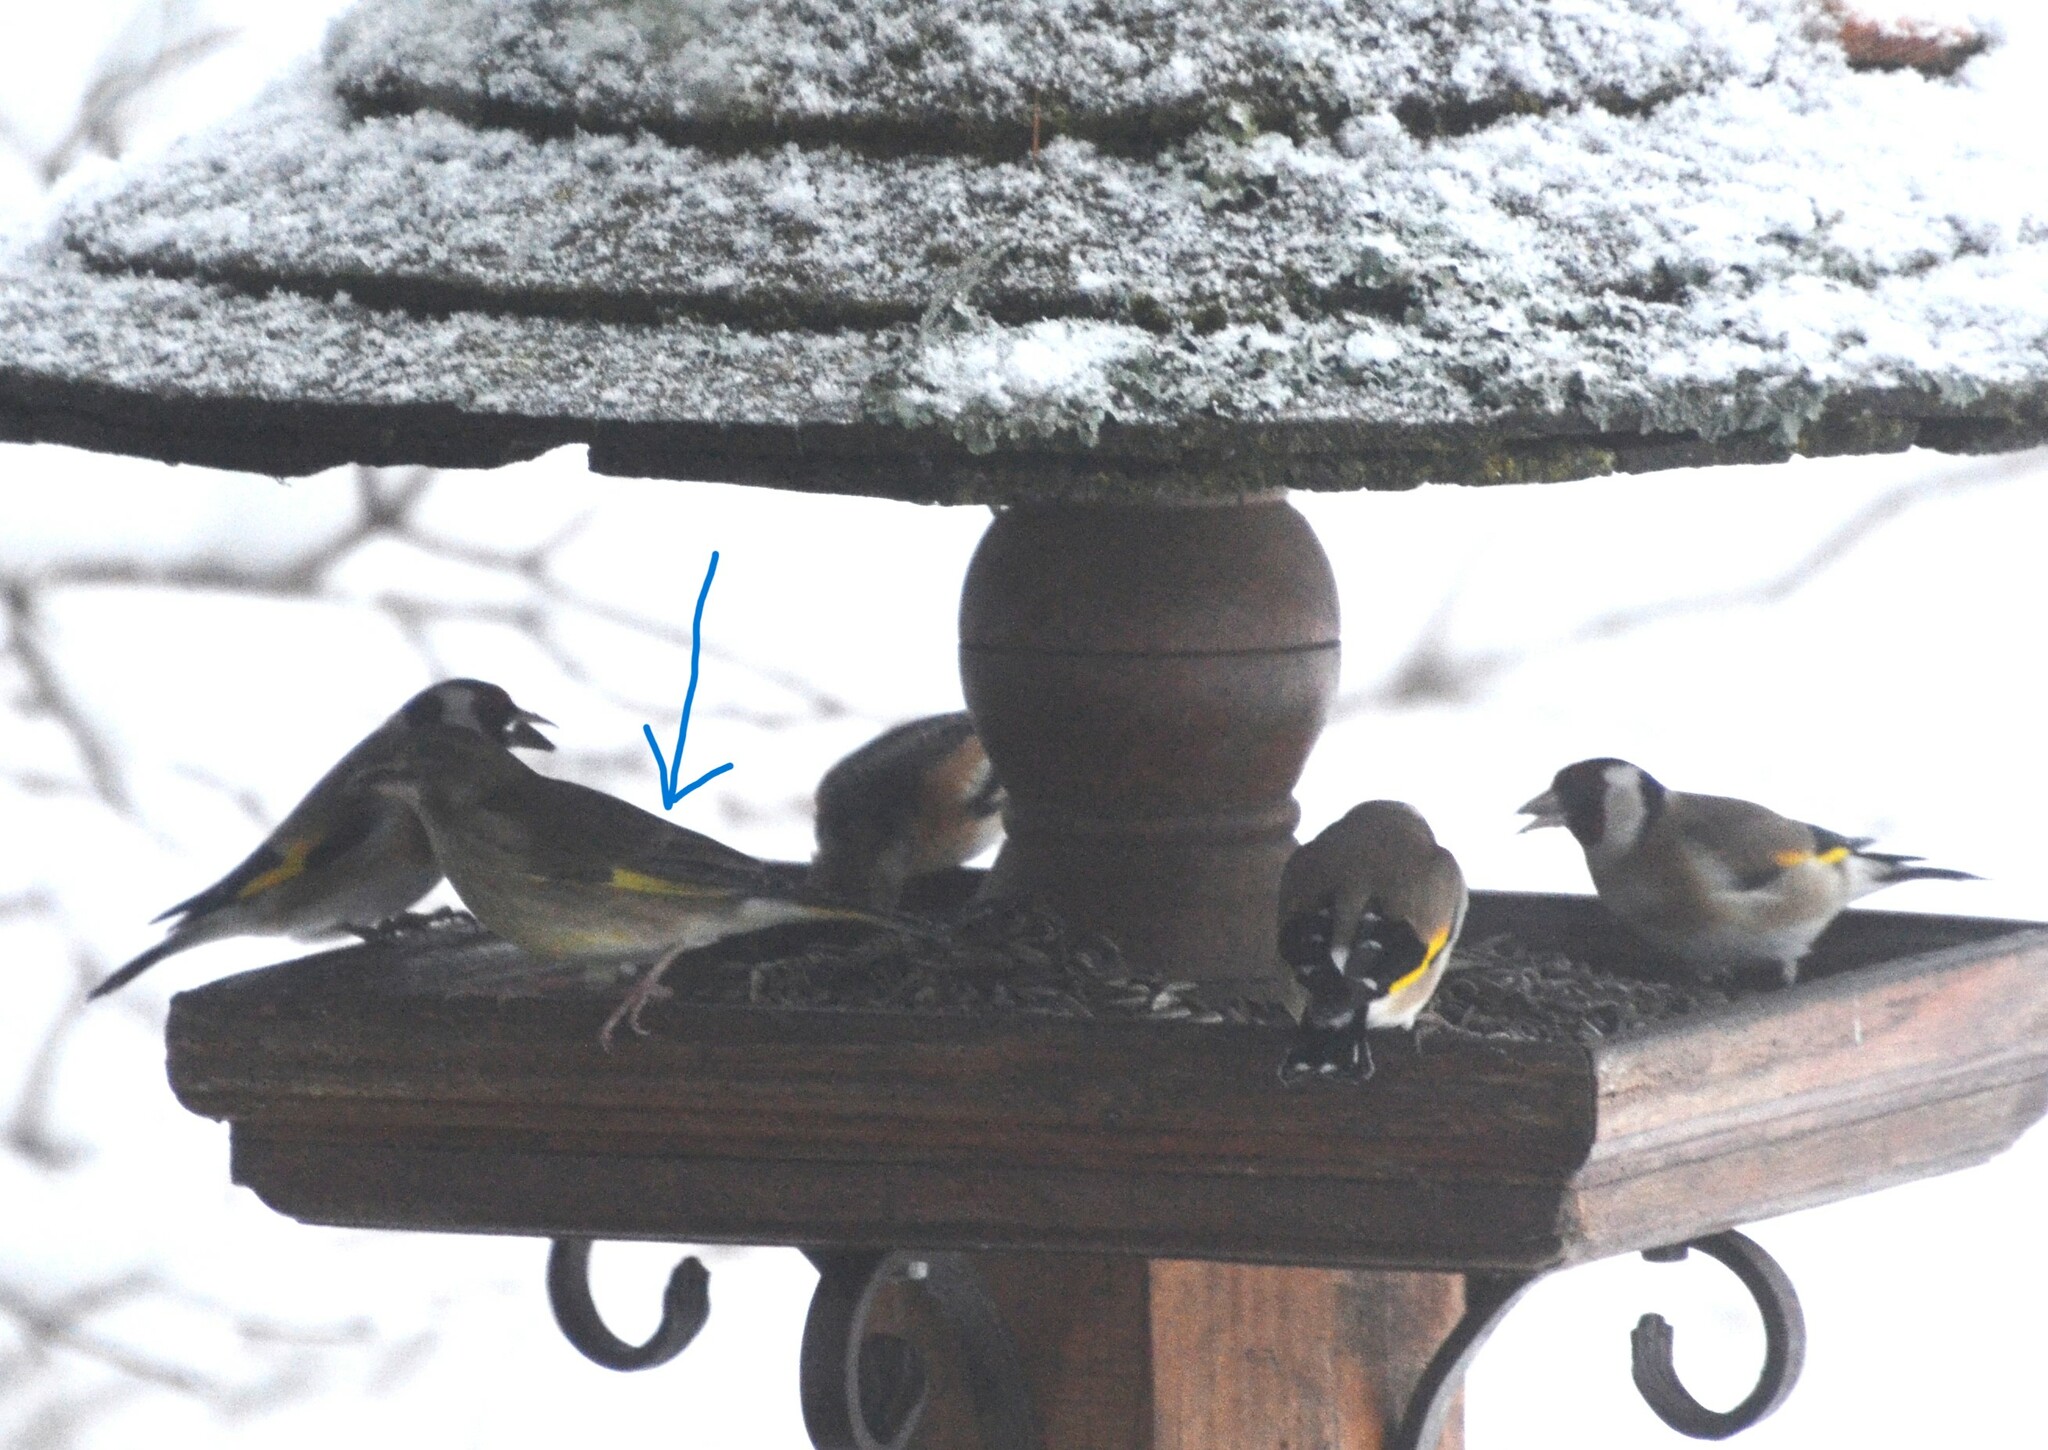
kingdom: Plantae
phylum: Tracheophyta
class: Liliopsida
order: Poales
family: Poaceae
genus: Chloris
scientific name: Chloris chloris
